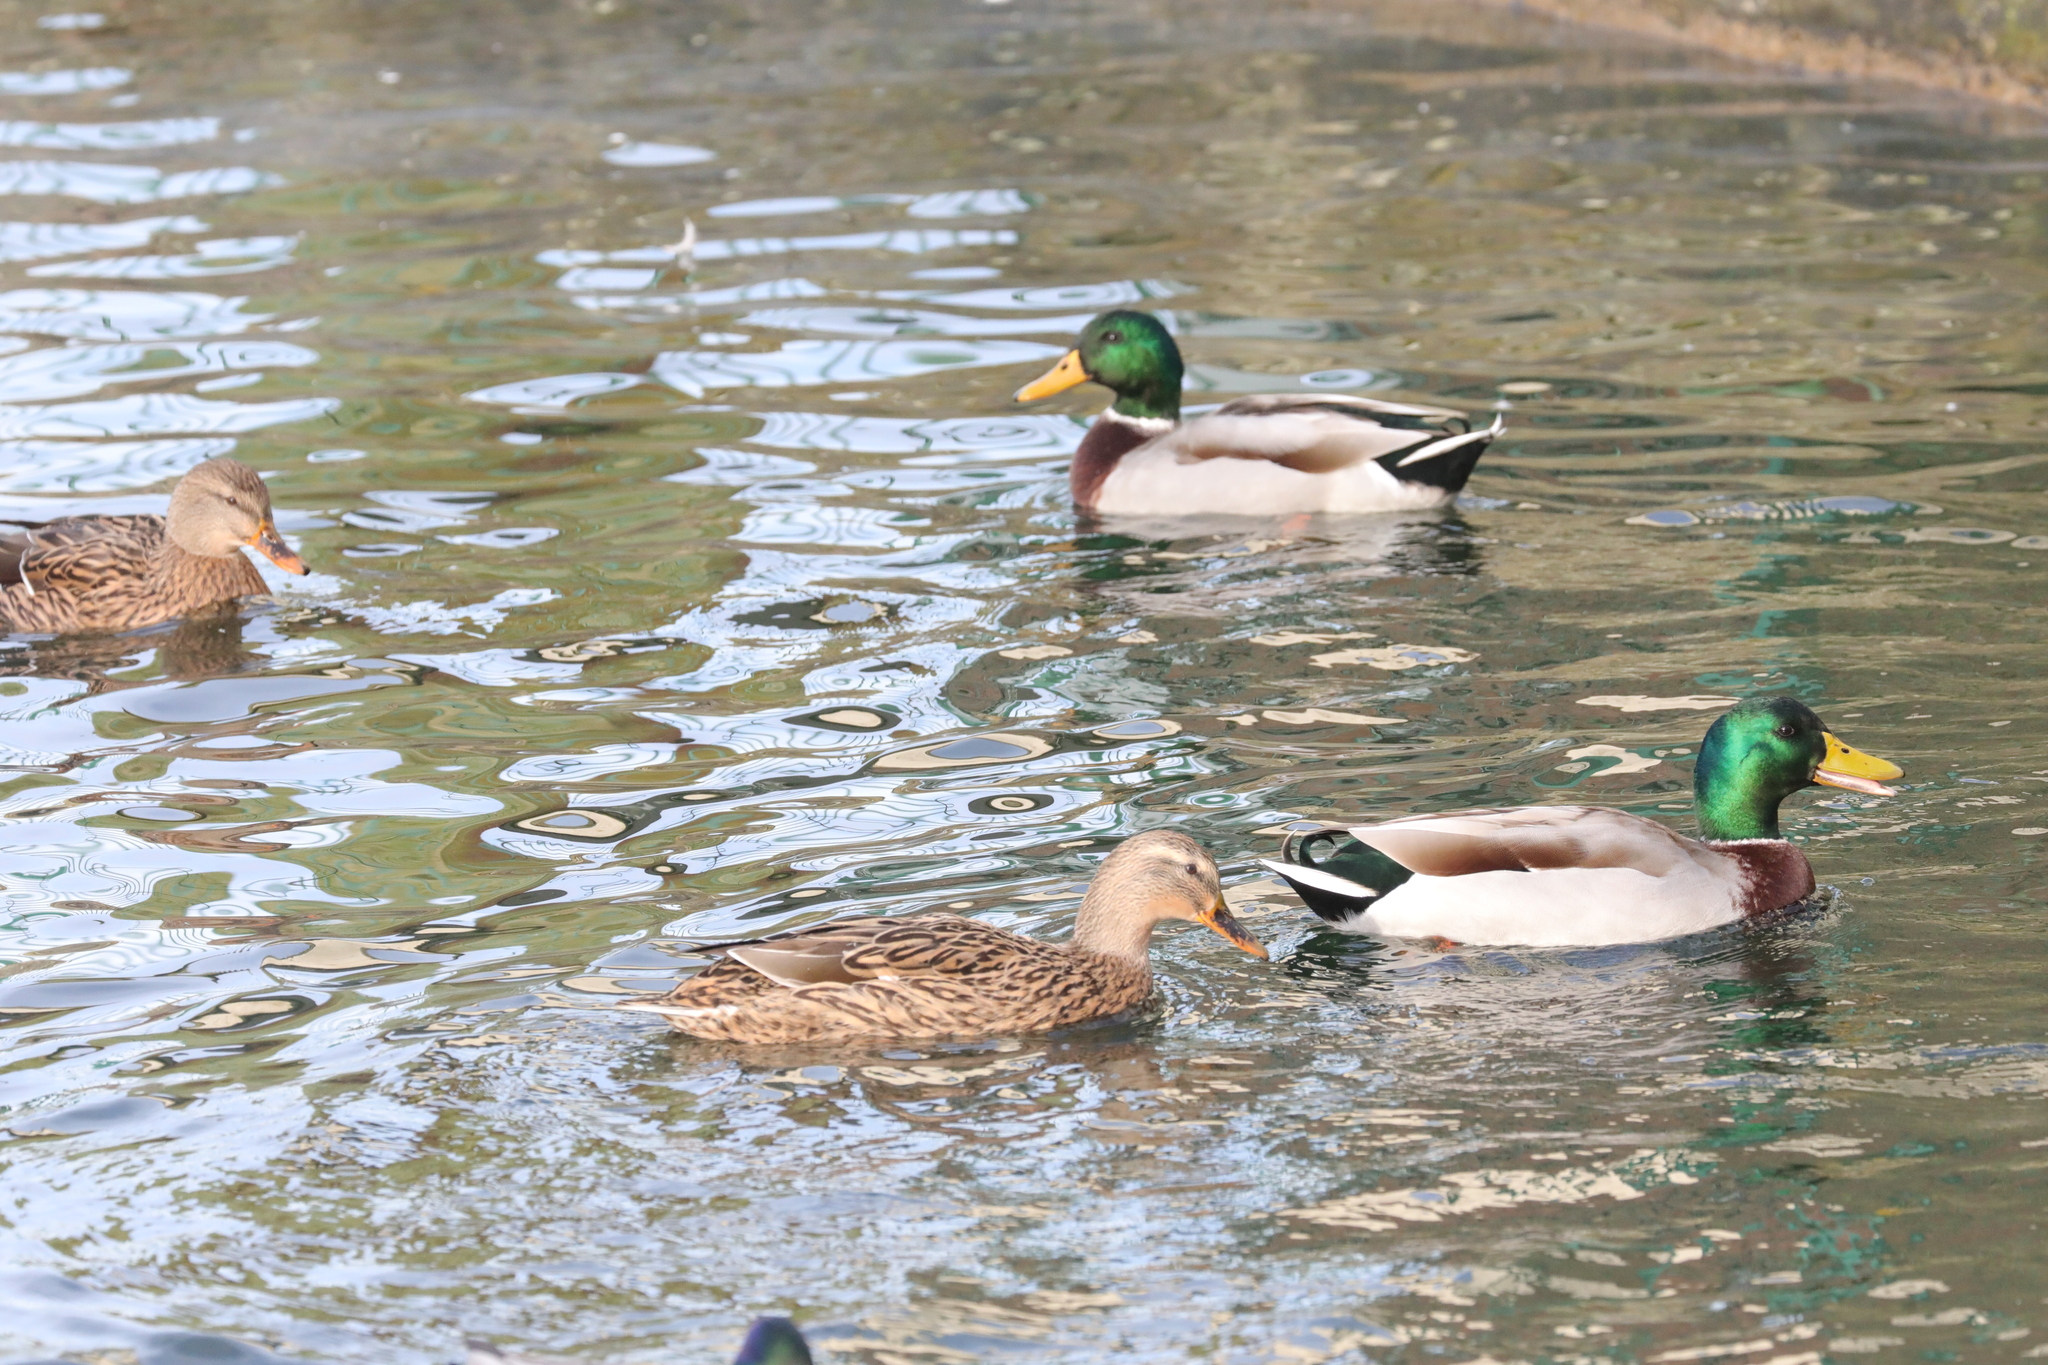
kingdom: Animalia
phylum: Chordata
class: Aves
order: Anseriformes
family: Anatidae
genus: Anas
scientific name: Anas platyrhynchos
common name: Mallard
